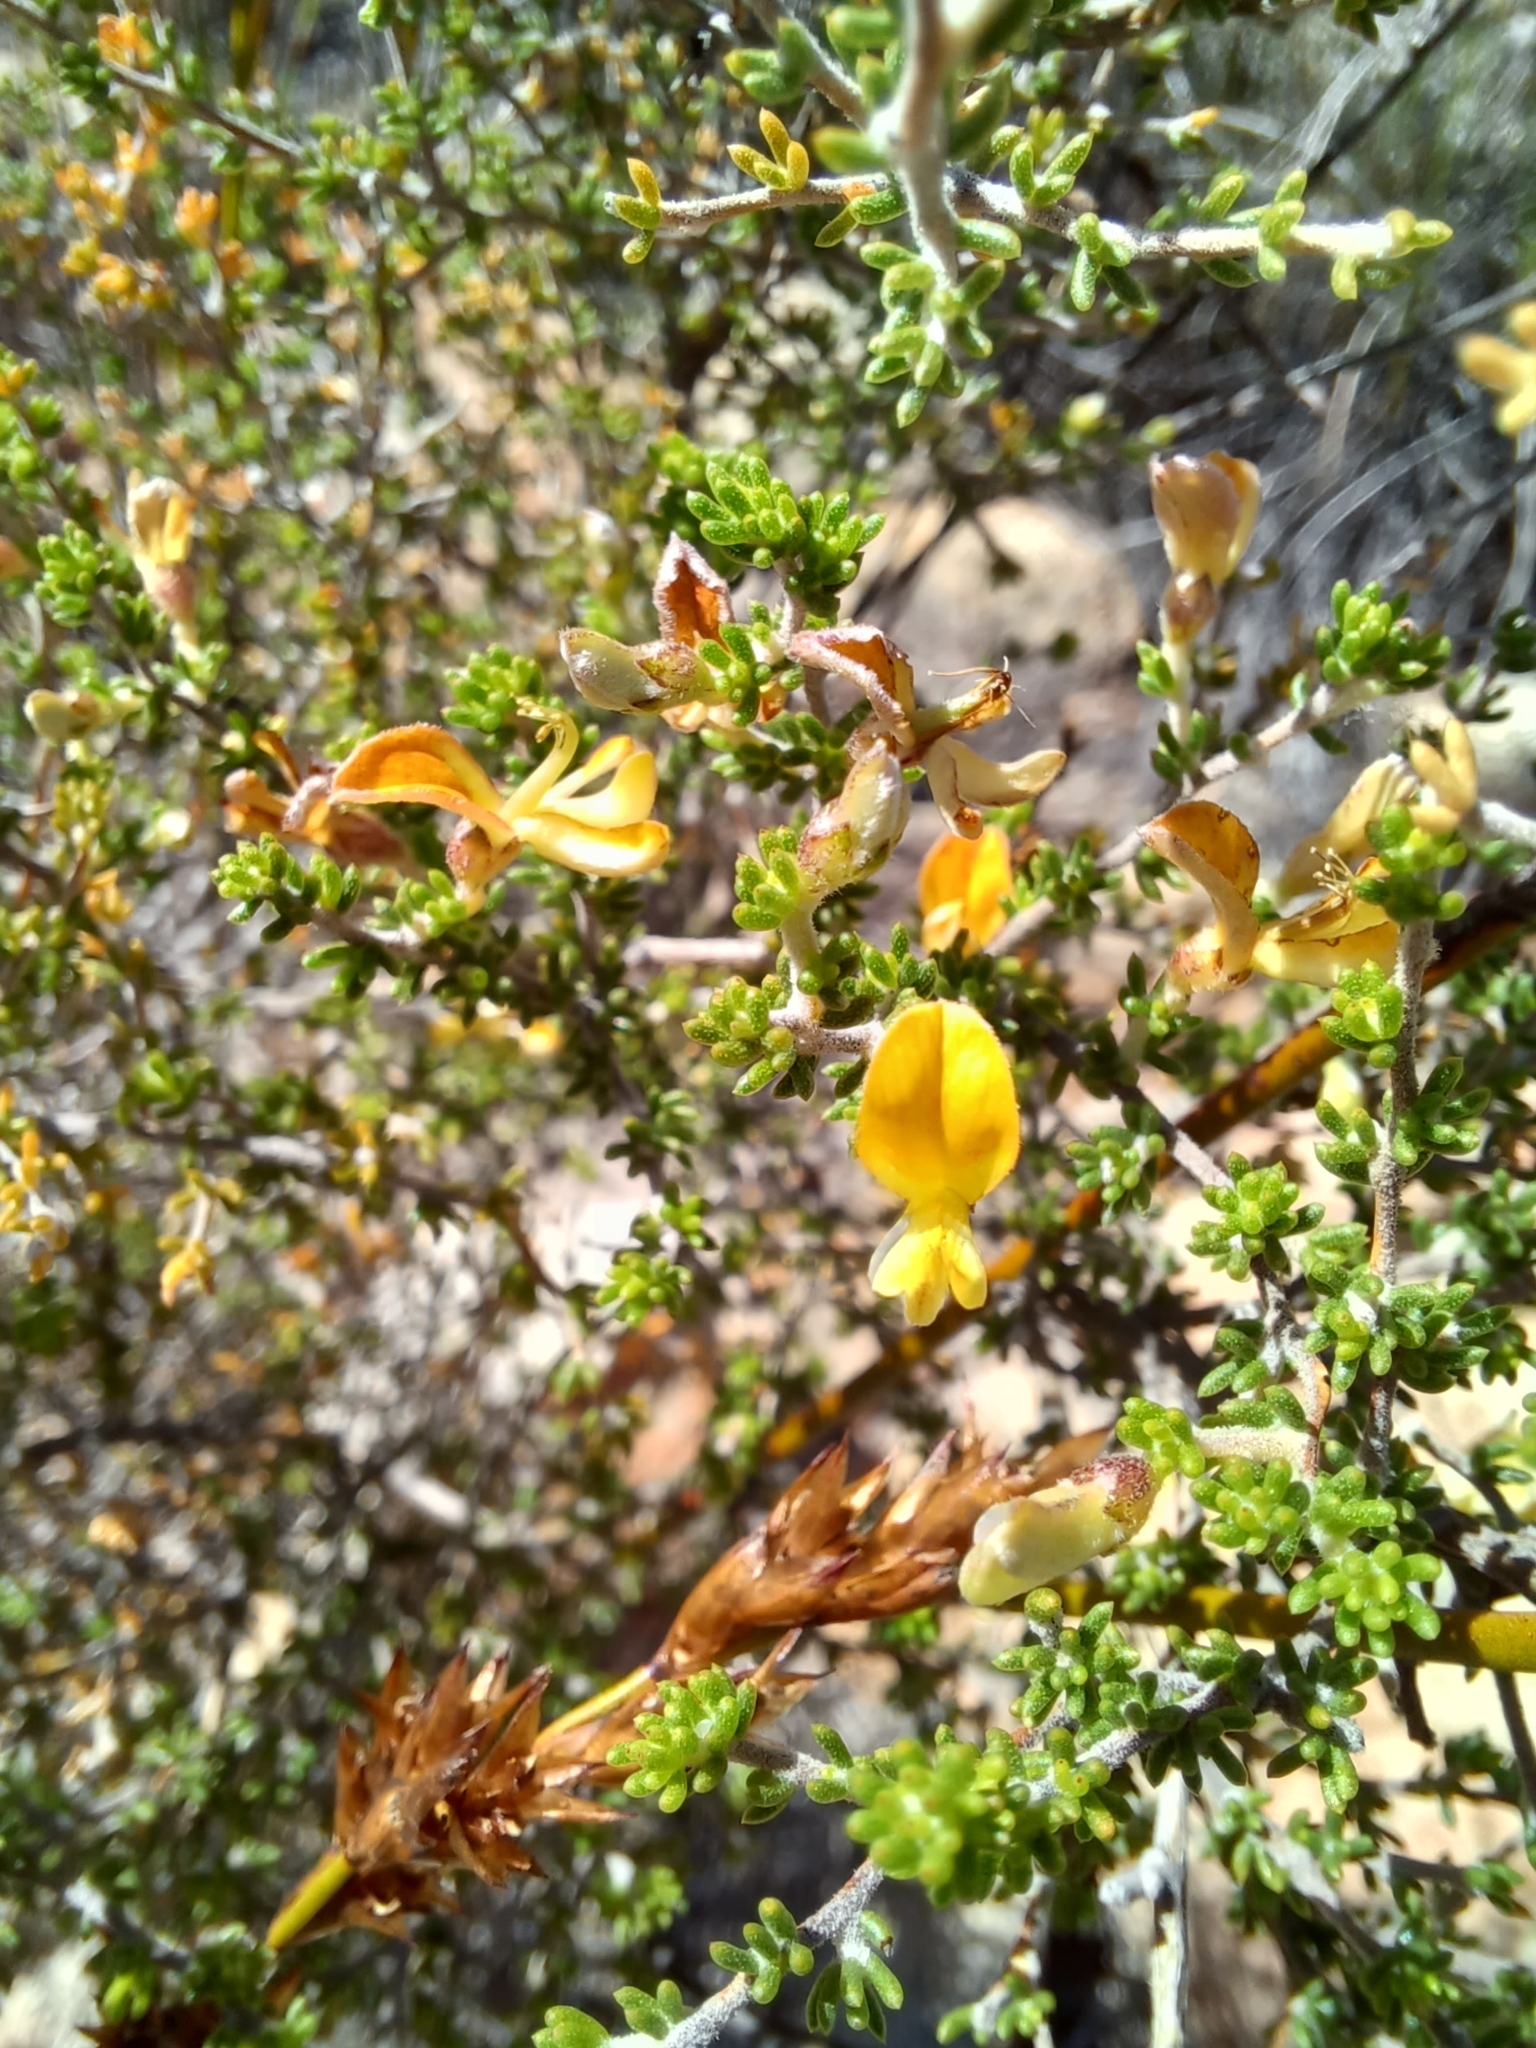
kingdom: Plantae
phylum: Tracheophyta
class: Magnoliopsida
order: Fabales
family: Fabaceae
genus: Aspalathus
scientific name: Aspalathus pilantha
